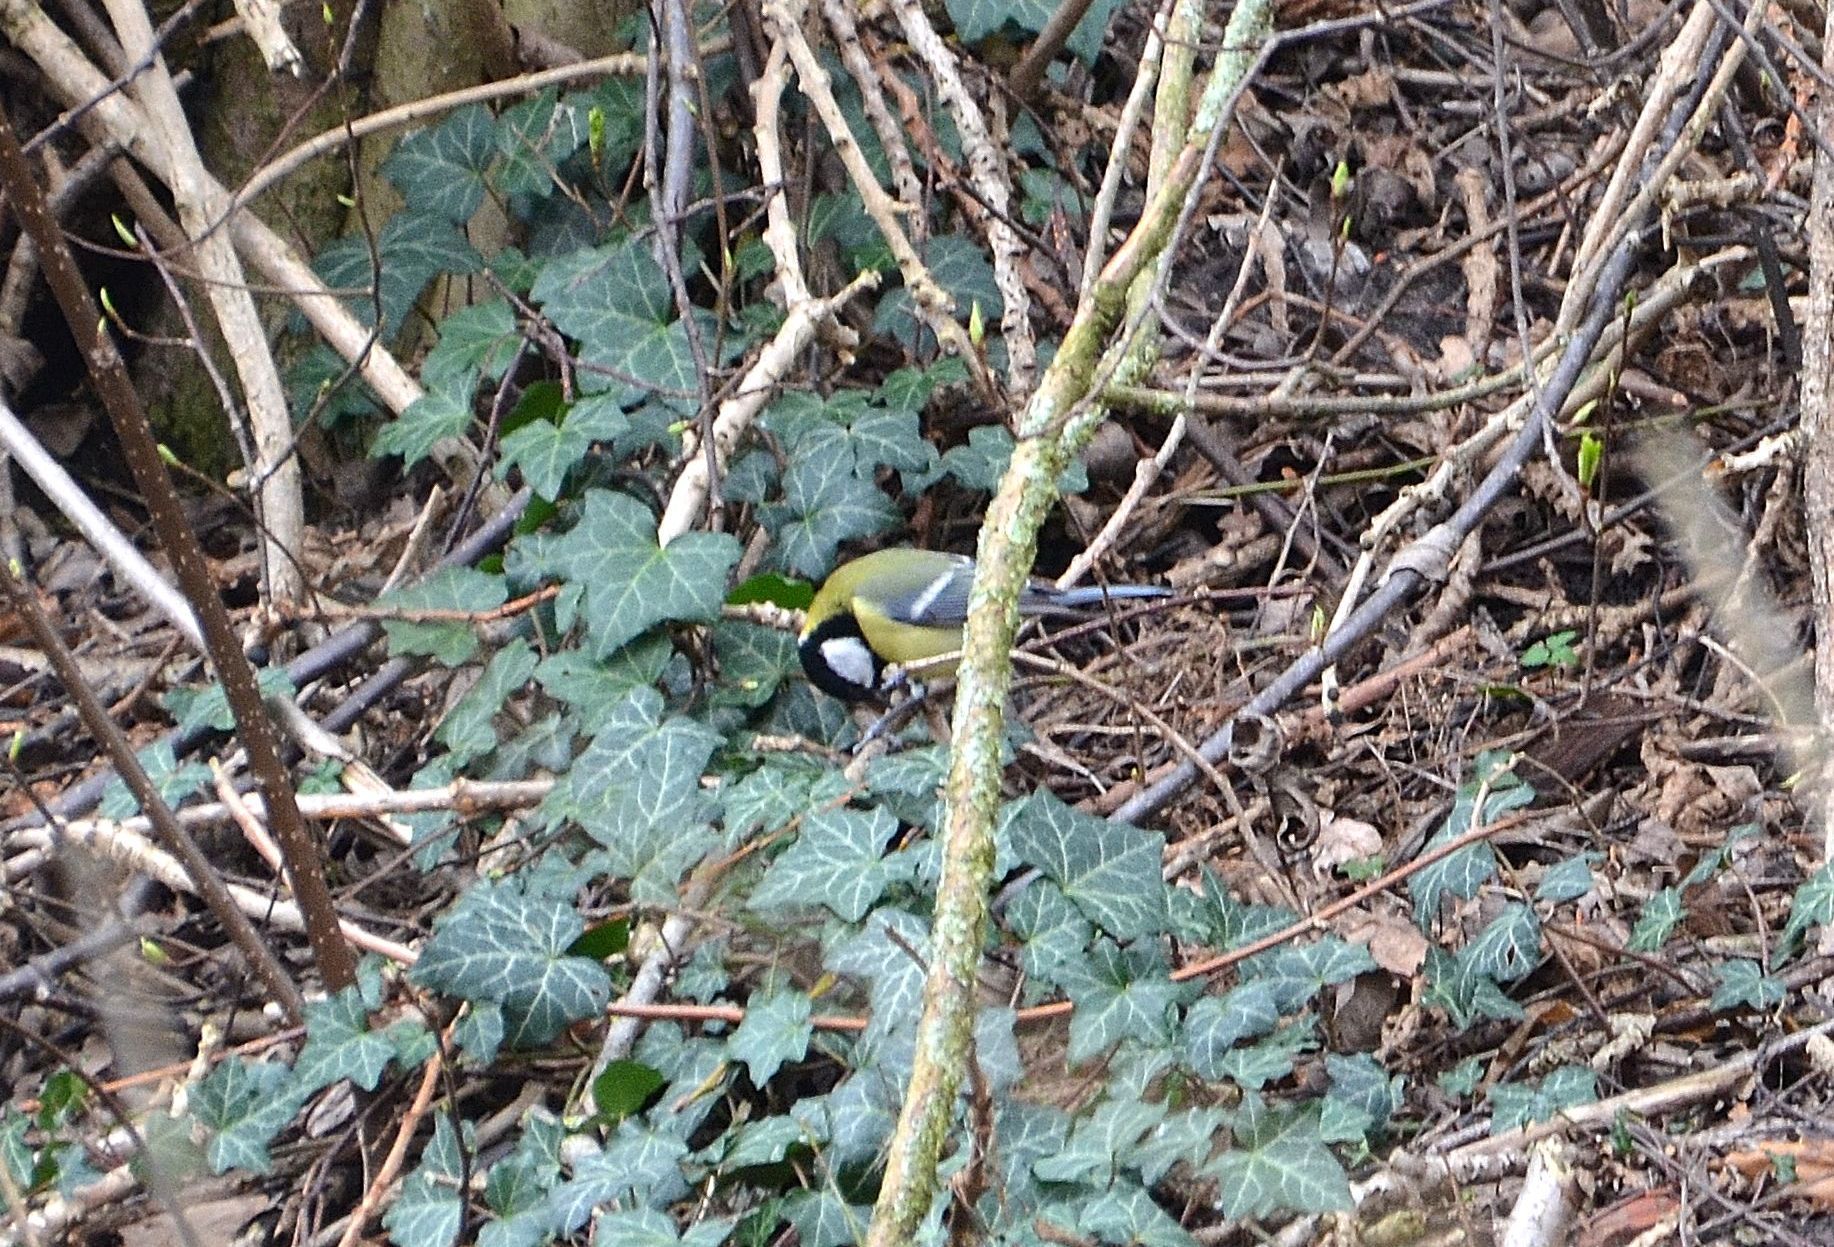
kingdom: Animalia
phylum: Chordata
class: Aves
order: Passeriformes
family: Paridae
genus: Parus
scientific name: Parus major
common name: Great tit
